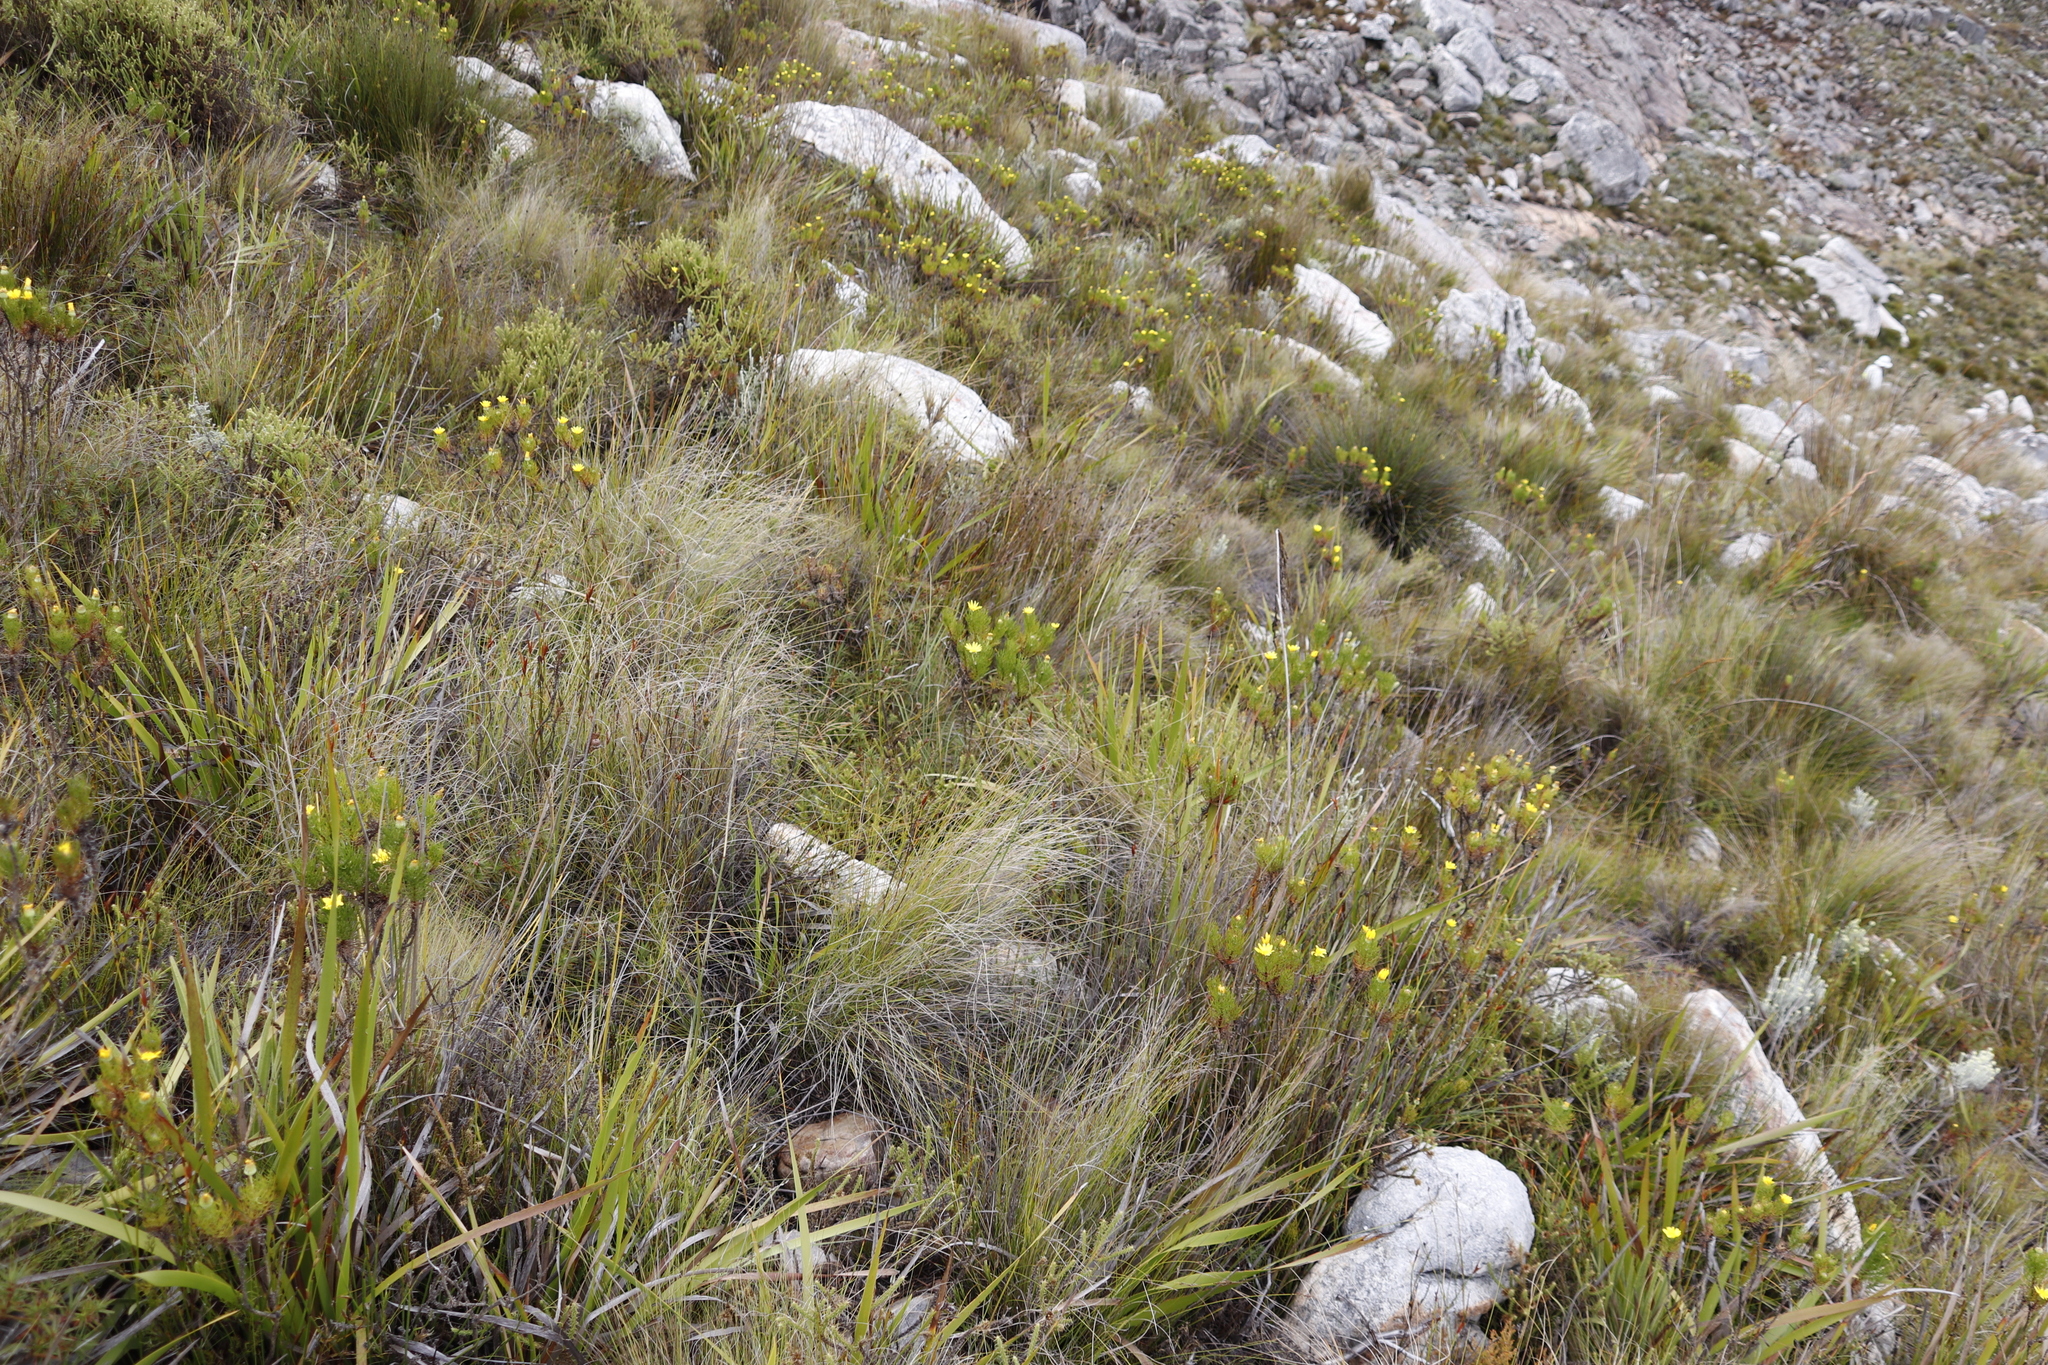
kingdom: Plantae
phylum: Tracheophyta
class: Magnoliopsida
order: Asterales
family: Asteraceae
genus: Euryops
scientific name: Euryops abrotanifolius
